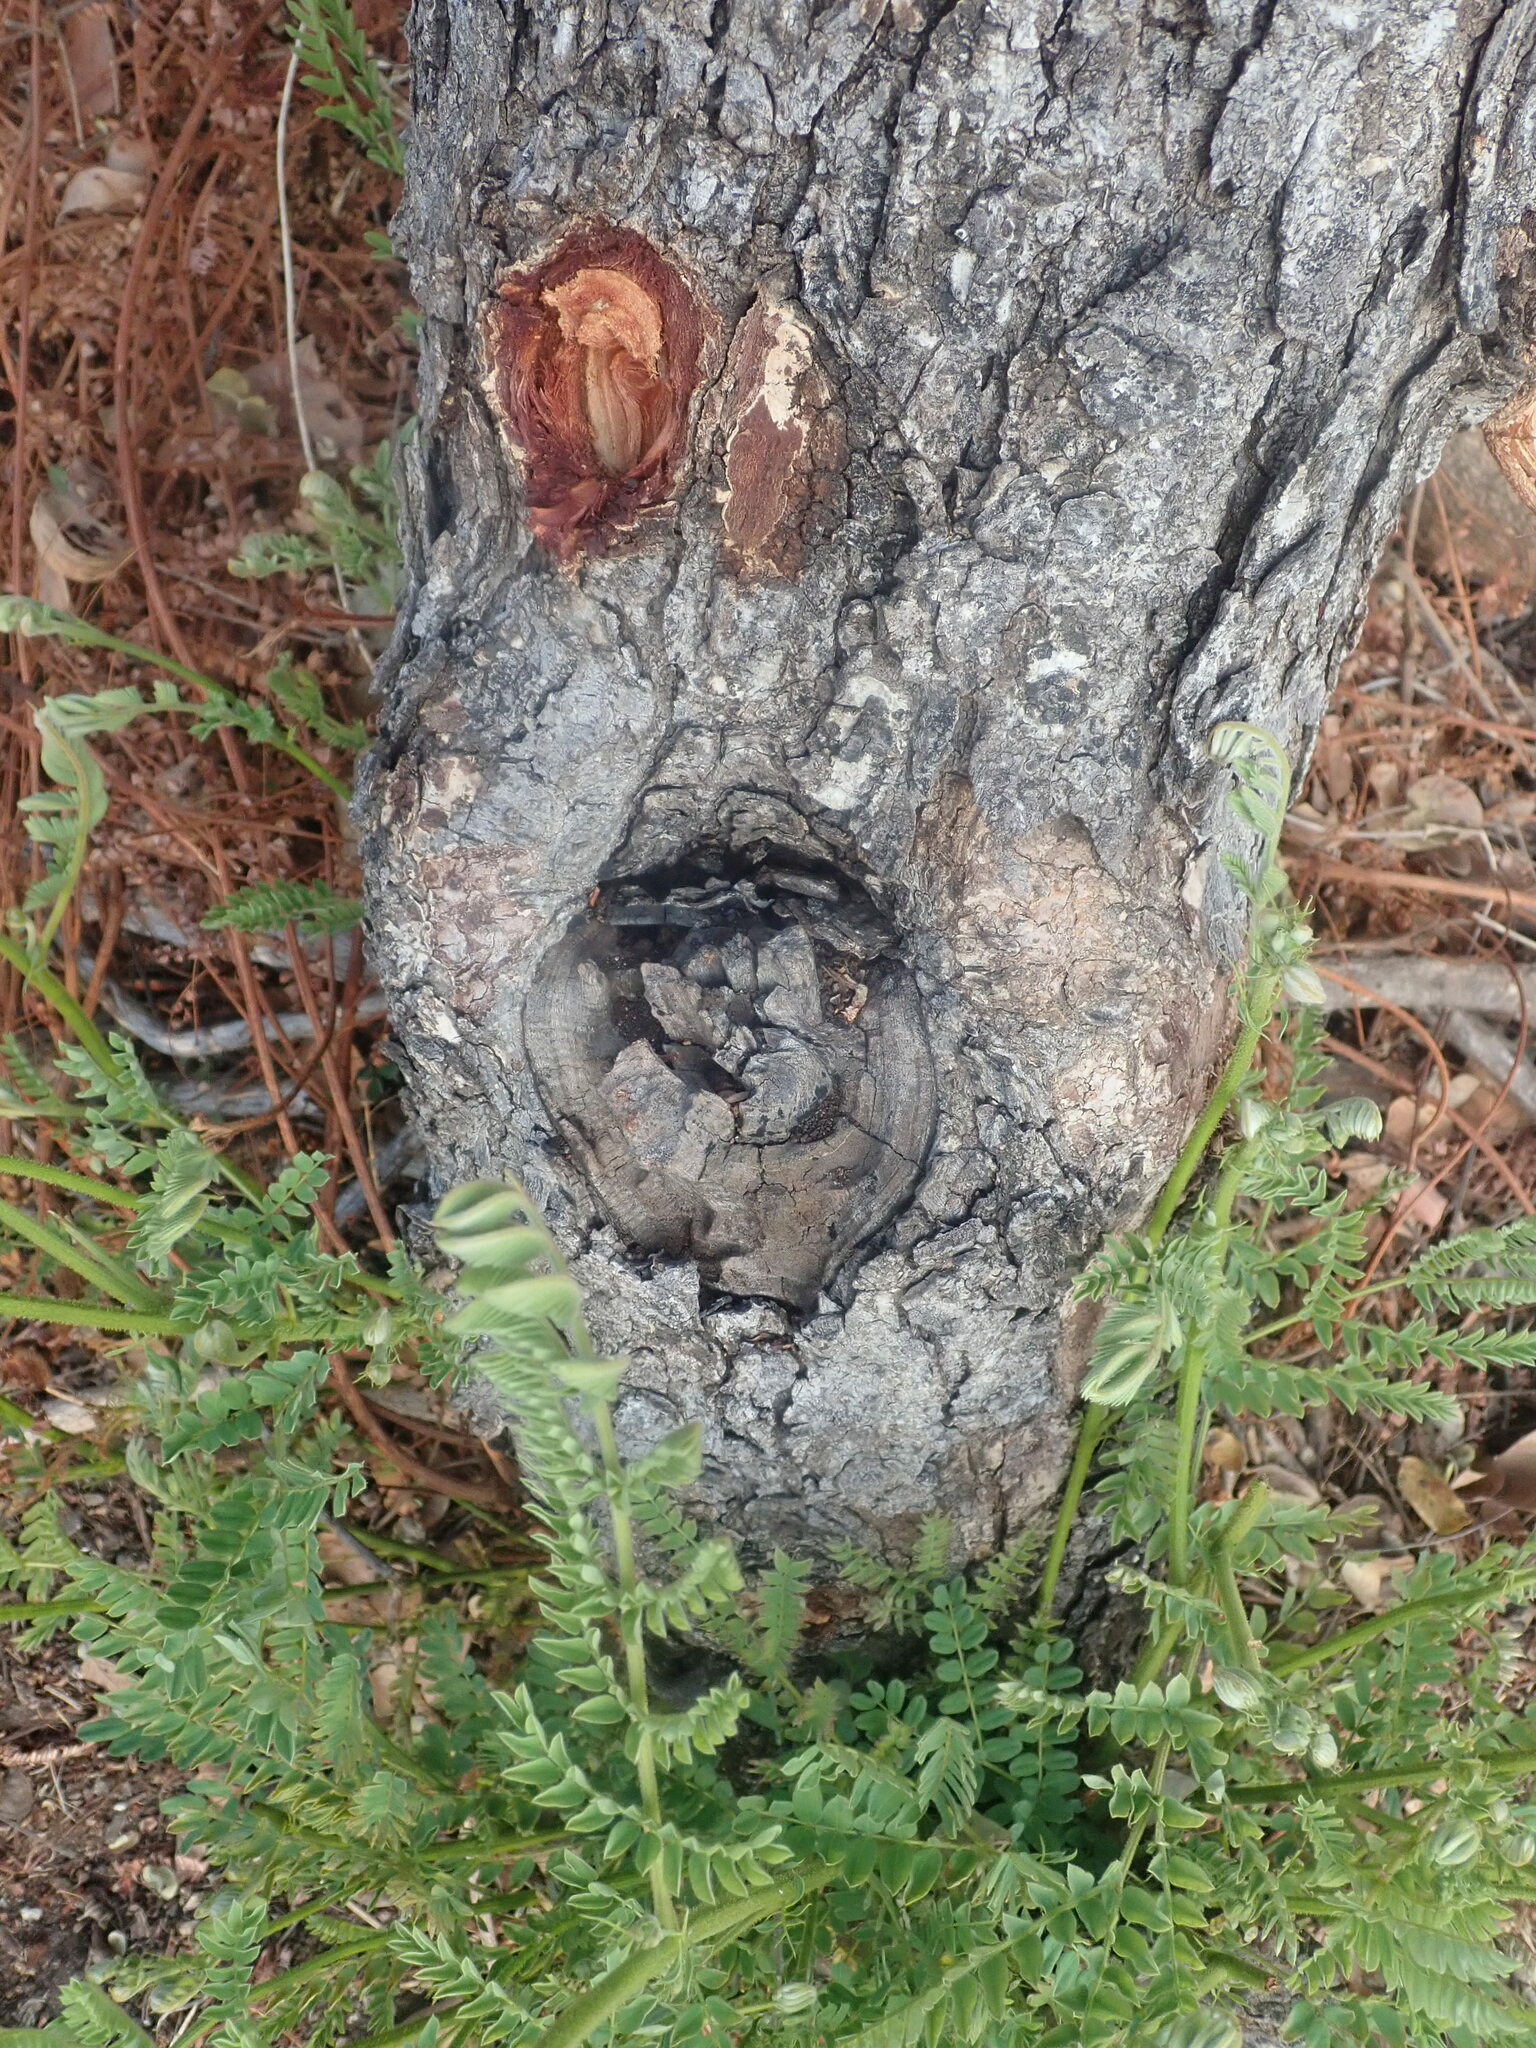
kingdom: Plantae
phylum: Tracheophyta
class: Magnoliopsida
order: Fabales
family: Fabaceae
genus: Peltophorum
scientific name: Peltophorum africanum
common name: African black wattle
